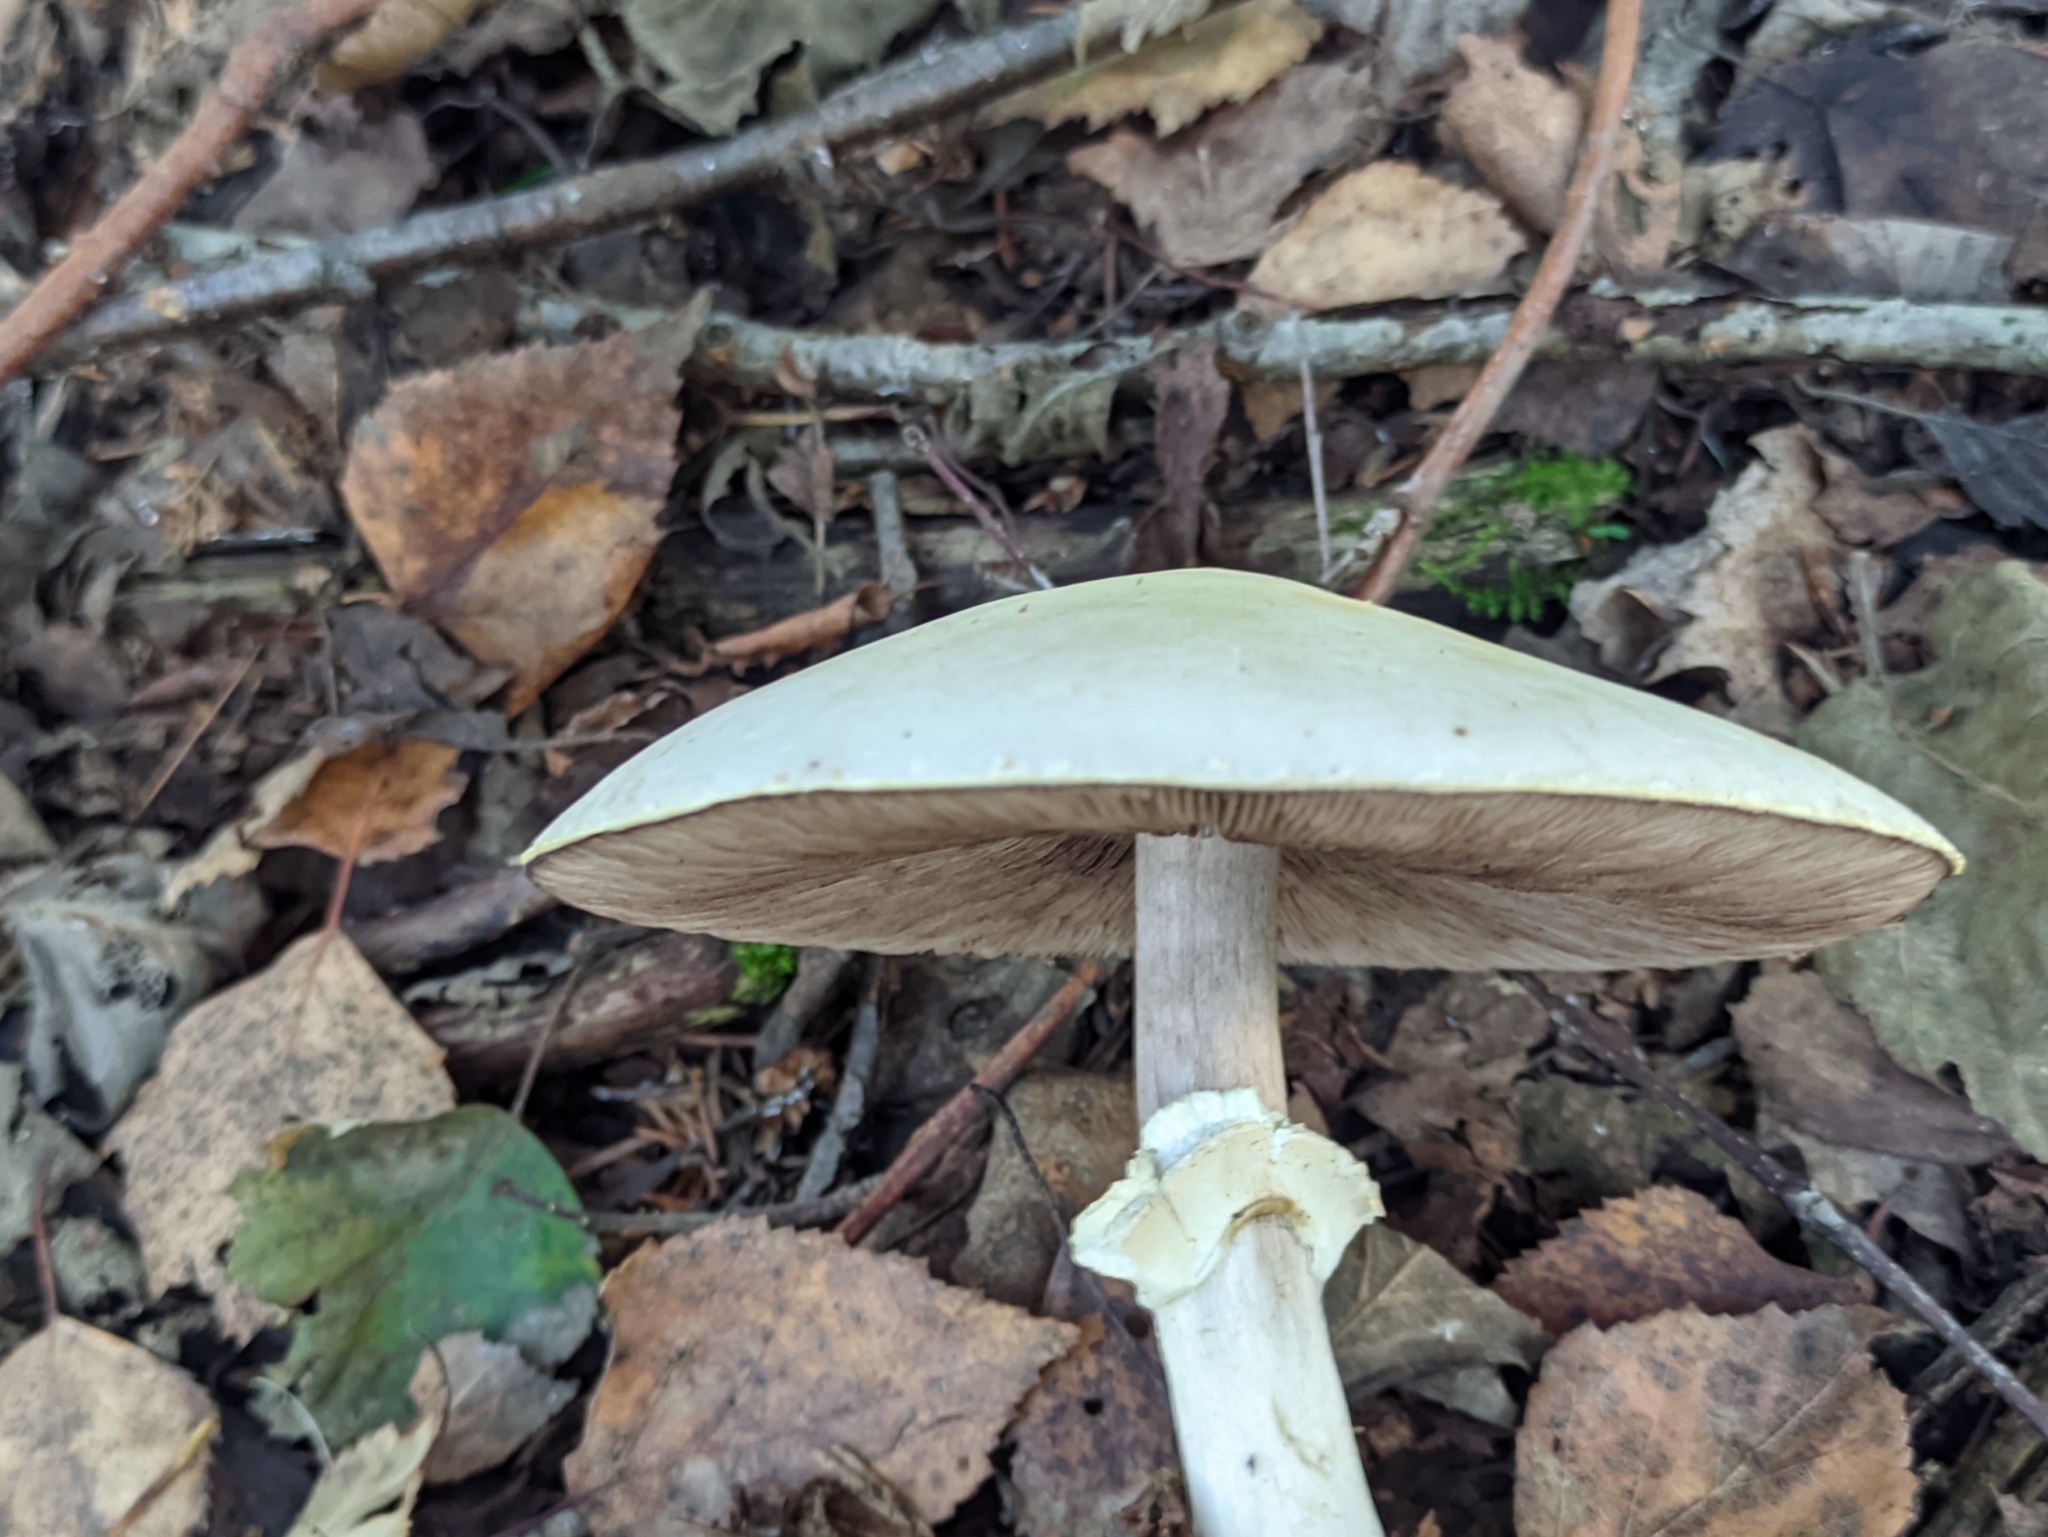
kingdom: Fungi
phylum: Basidiomycota
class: Agaricomycetes
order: Agaricales
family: Agaricaceae
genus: Agaricus
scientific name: Agaricus sylvicola
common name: Wood mushroom
